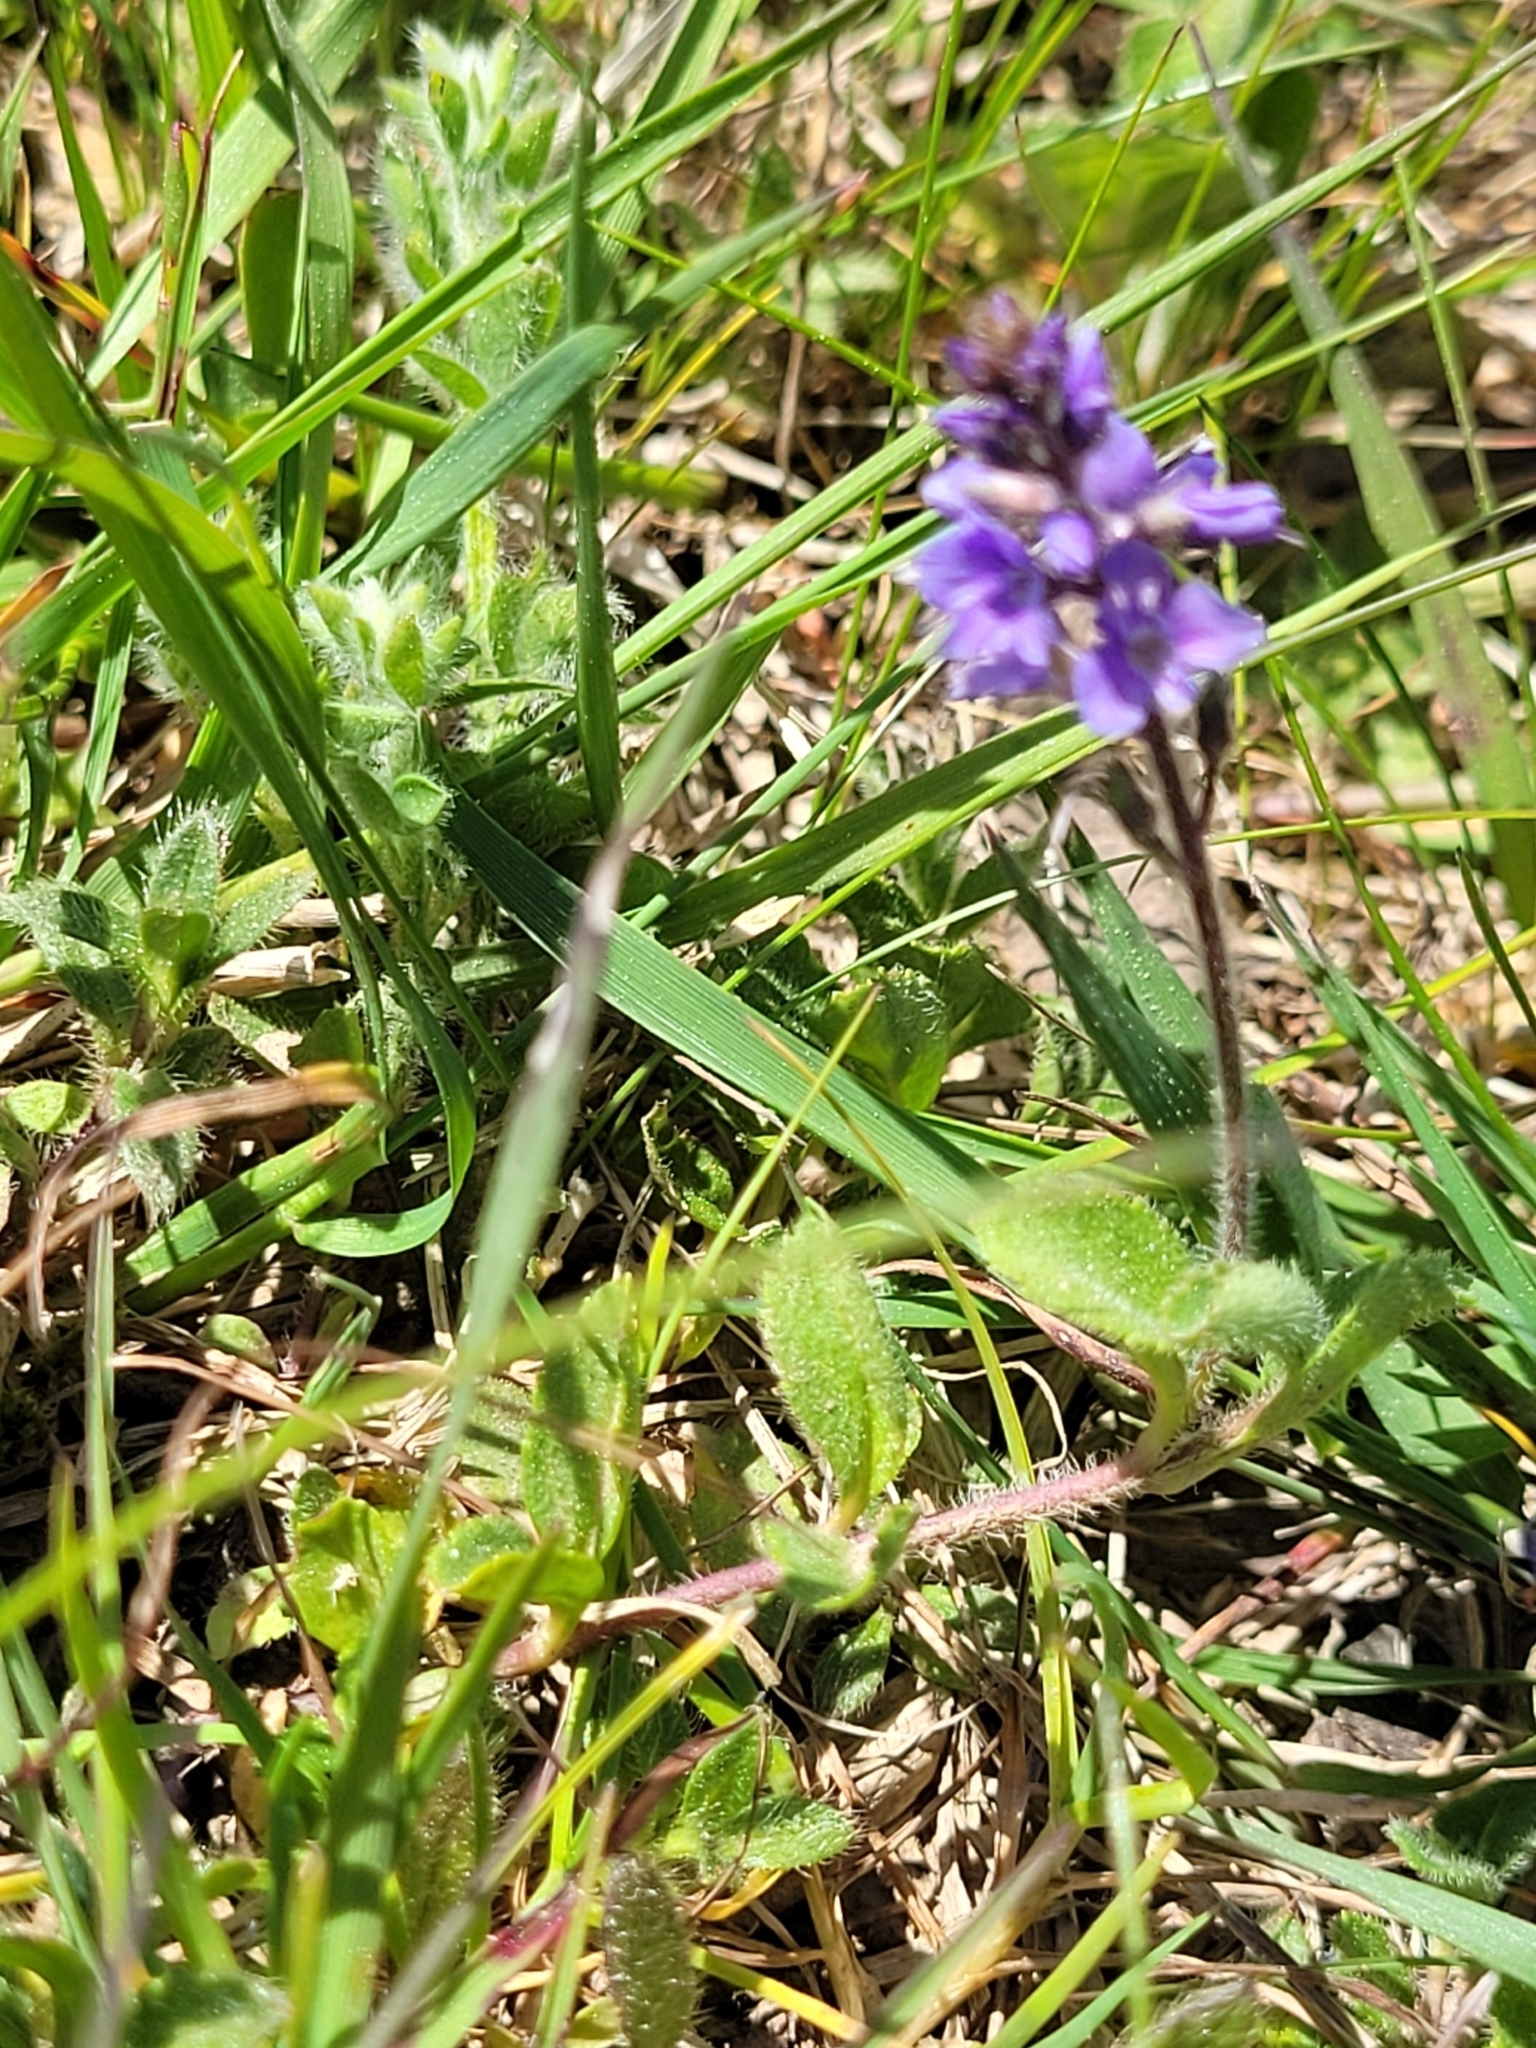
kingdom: Plantae
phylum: Tracheophyta
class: Magnoliopsida
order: Lamiales
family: Plantaginaceae
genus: Veronica
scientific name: Veronica officinalis
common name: Common speedwell
